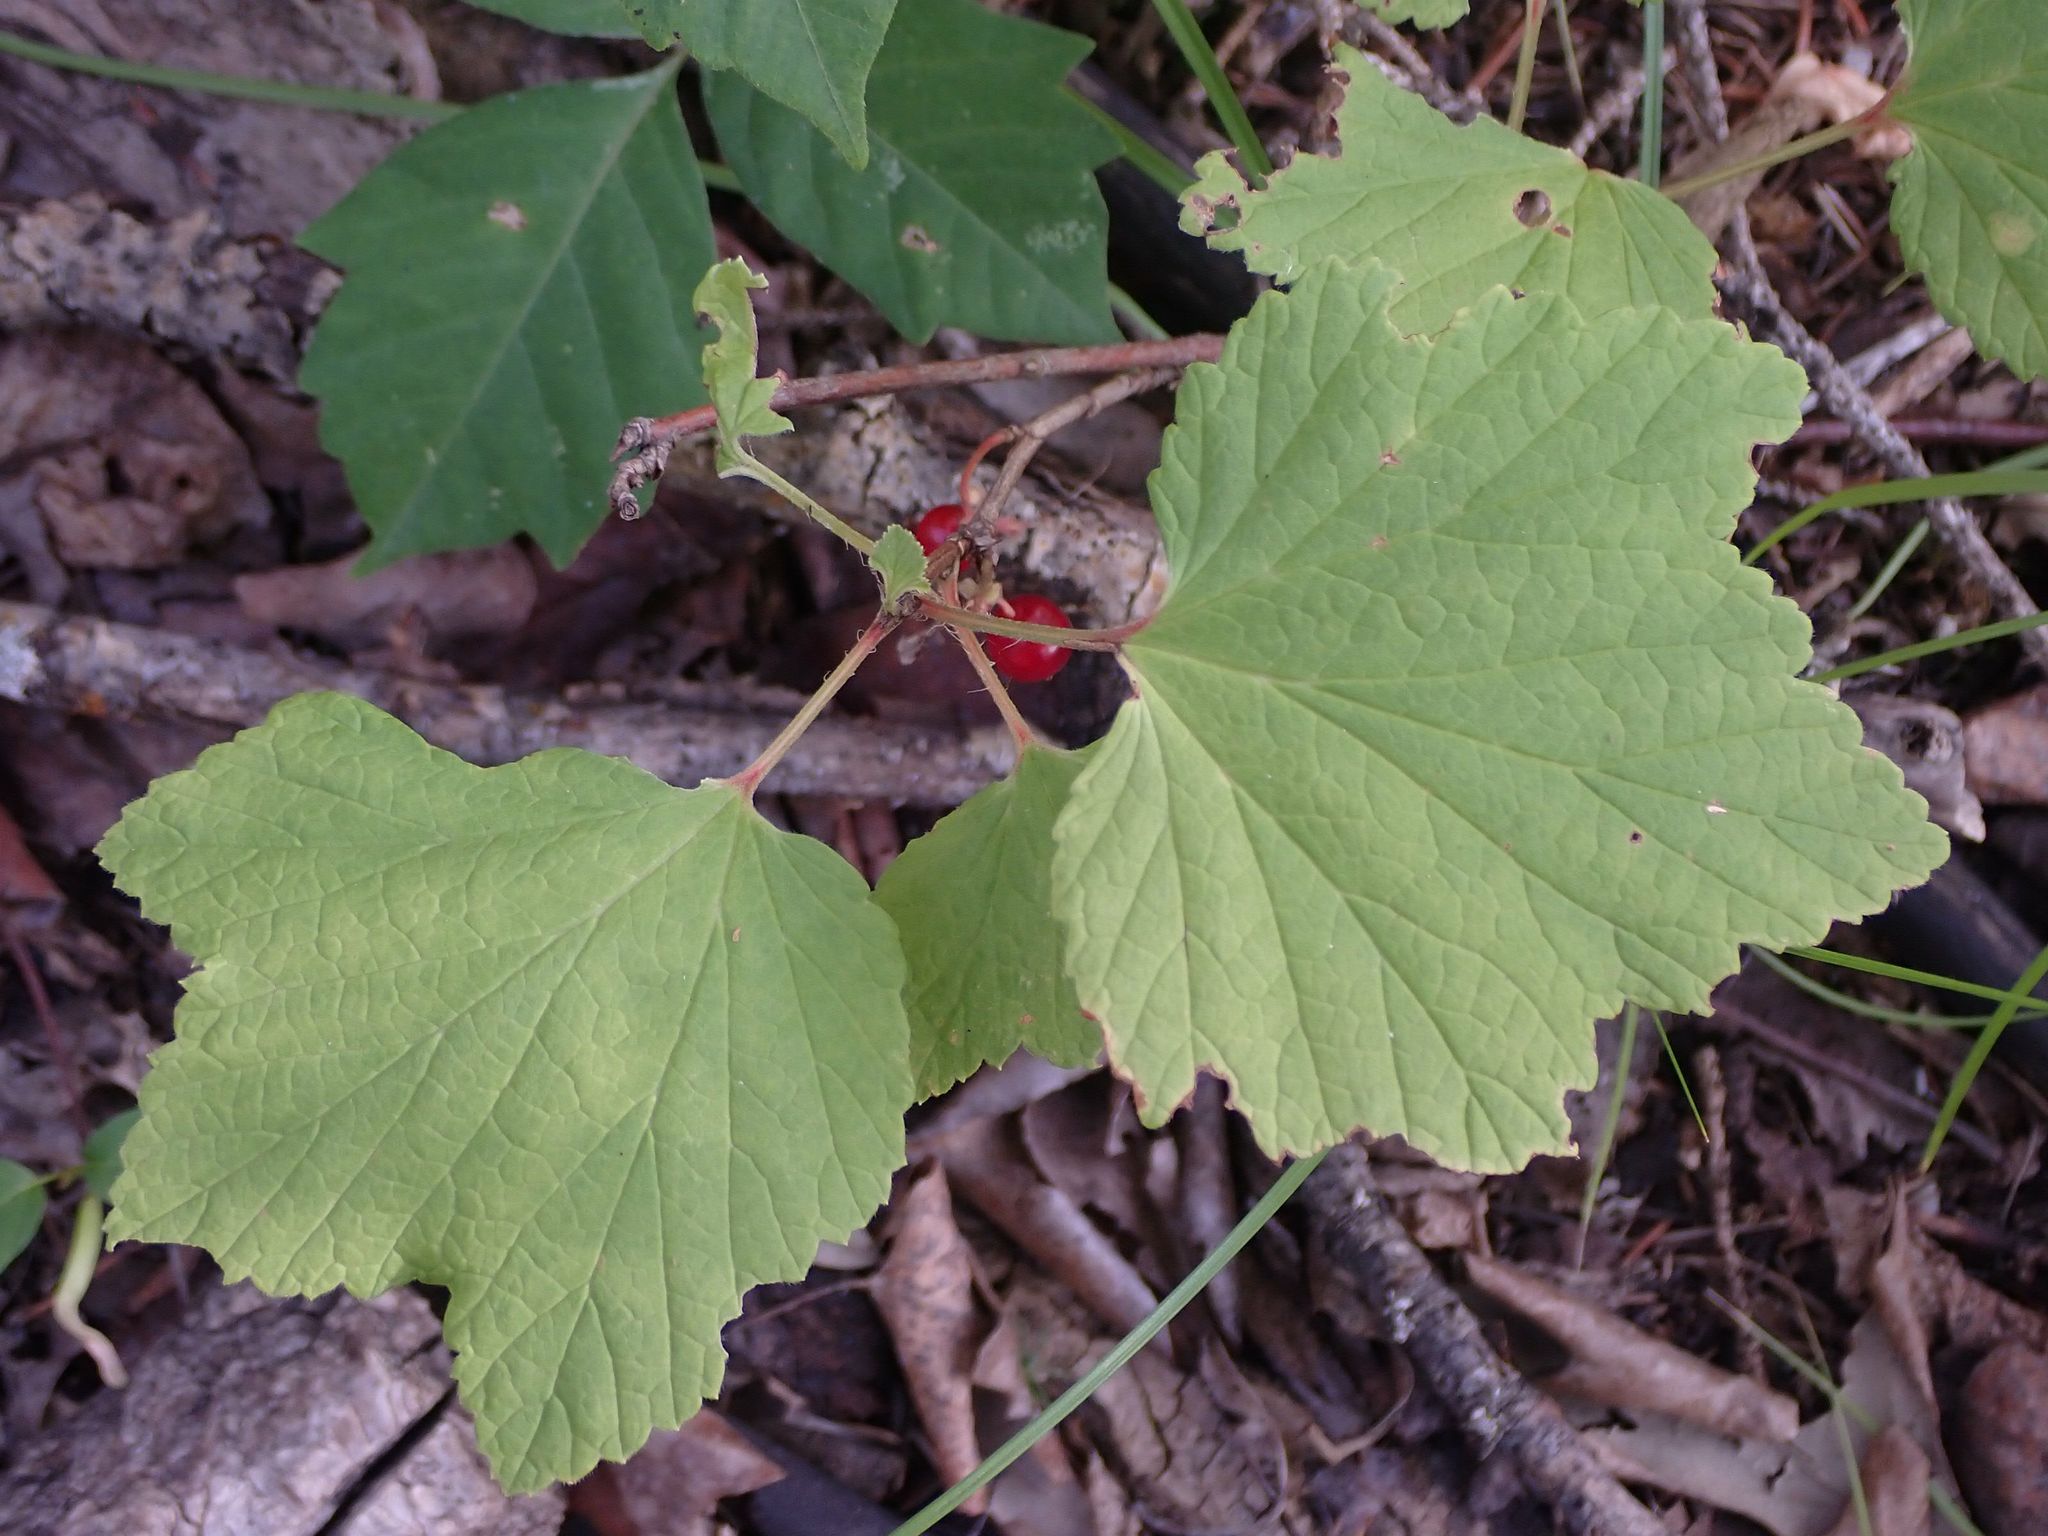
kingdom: Plantae
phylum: Tracheophyta
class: Magnoliopsida
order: Saxifragales
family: Grossulariaceae
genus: Ribes
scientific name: Ribes triste
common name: Swamp red currant
